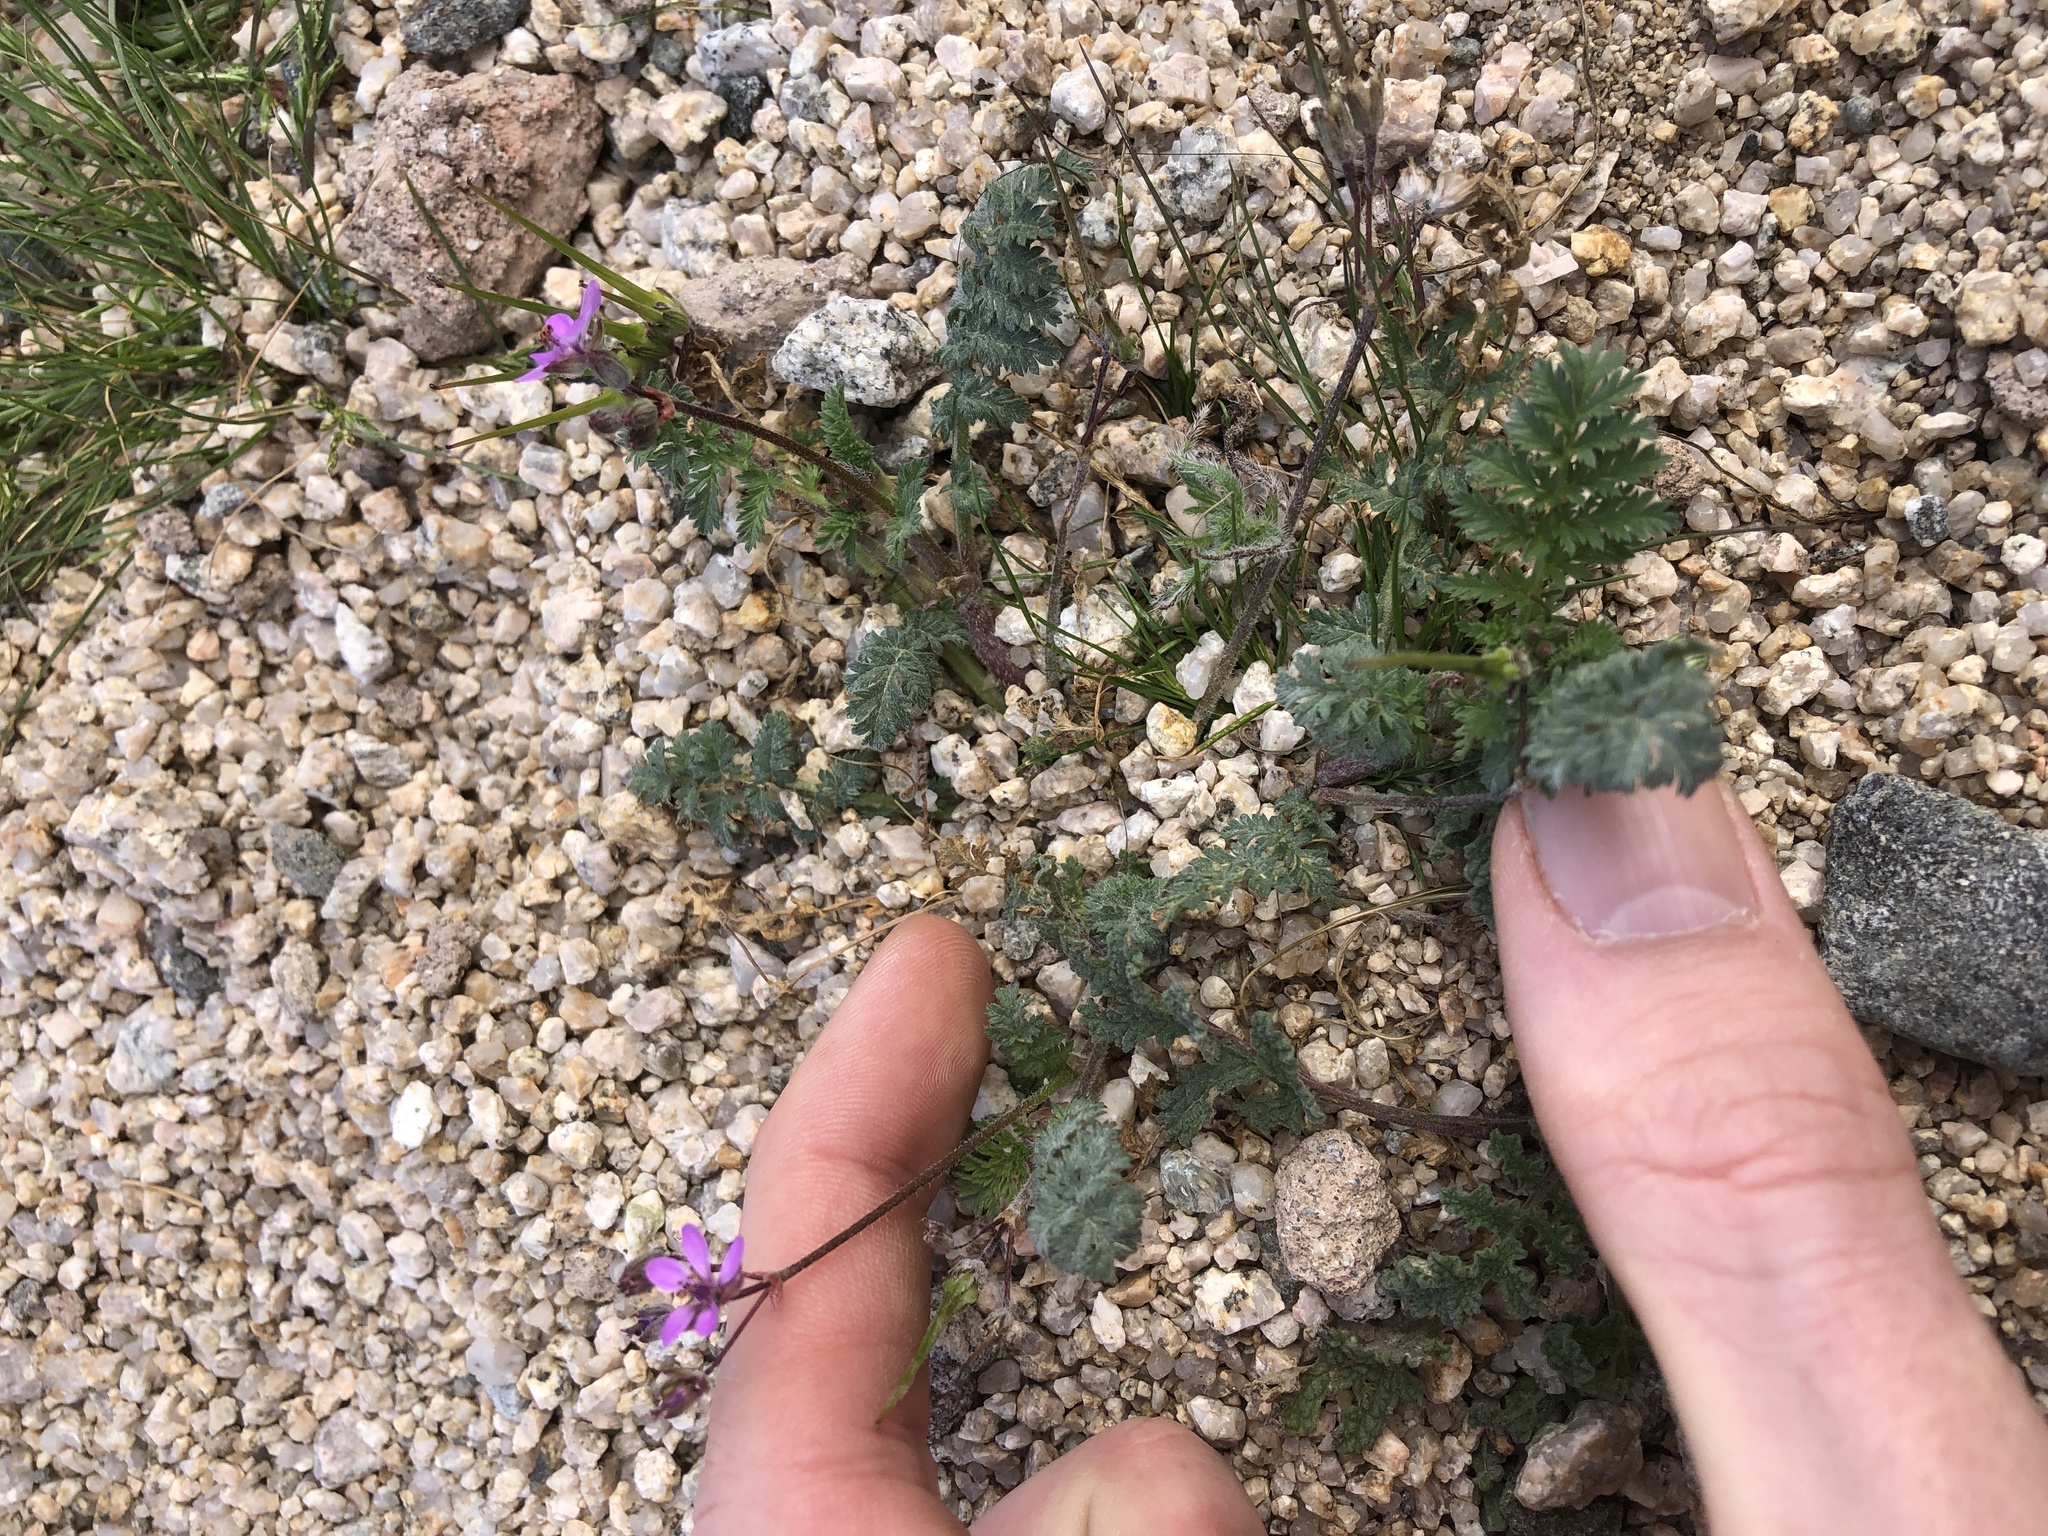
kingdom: Plantae
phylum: Tracheophyta
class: Magnoliopsida
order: Geraniales
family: Geraniaceae
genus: Erodium
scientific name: Erodium cicutarium
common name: Common stork's-bill
